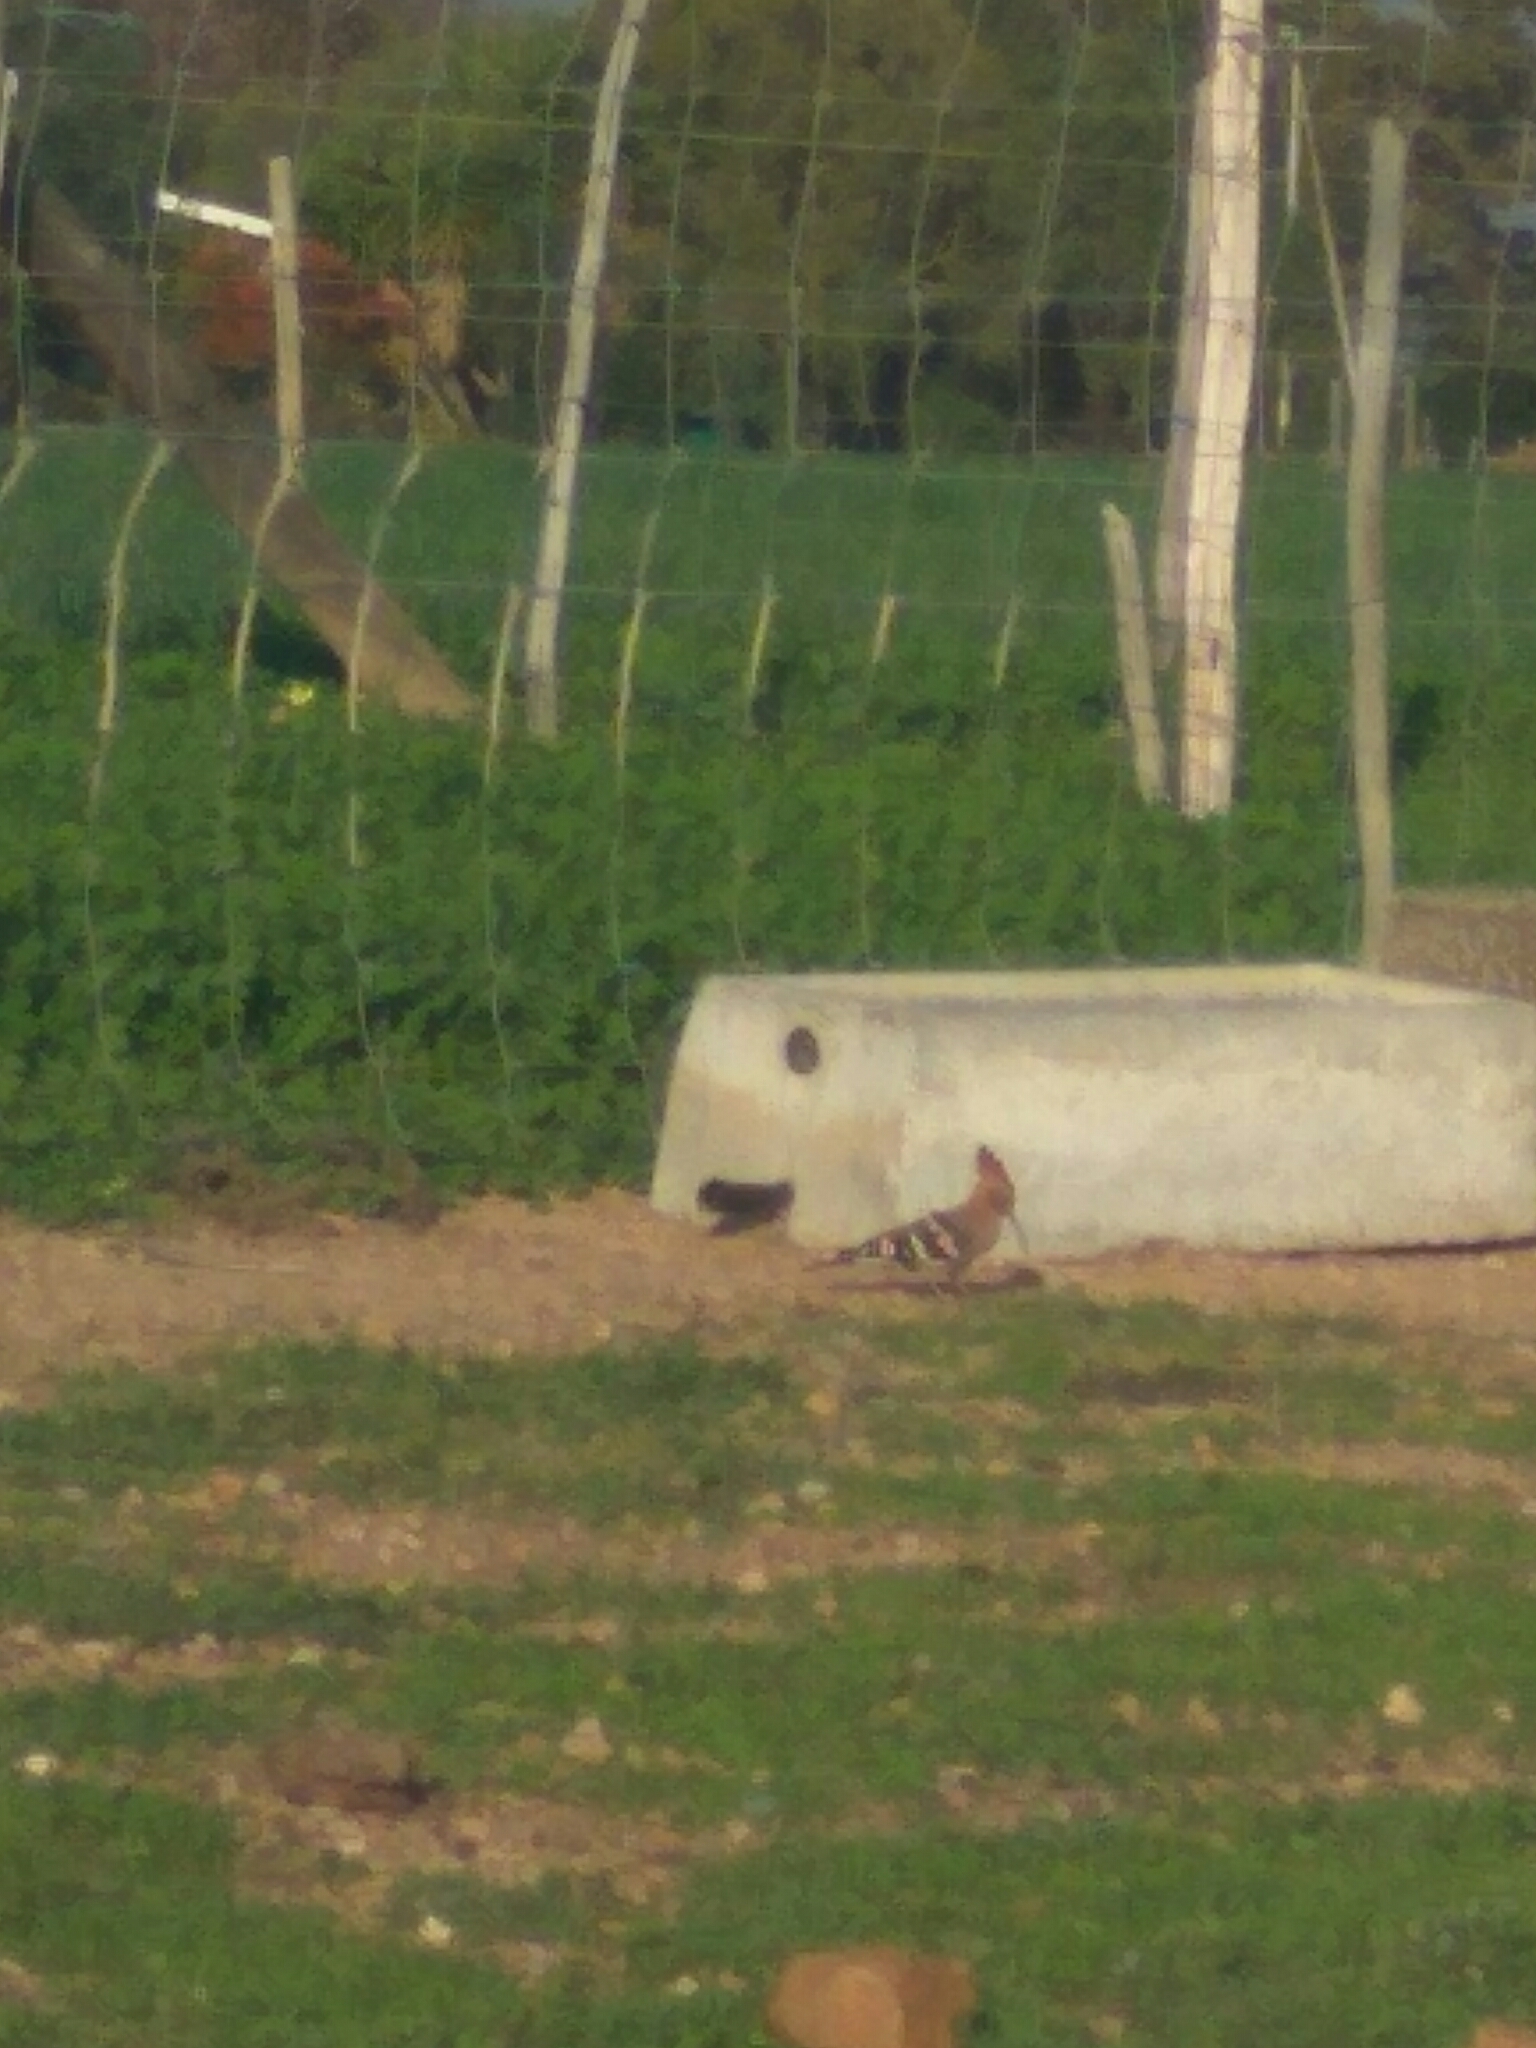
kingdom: Animalia
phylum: Chordata
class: Aves
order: Bucerotiformes
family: Upupidae
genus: Upupa
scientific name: Upupa africana
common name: African hoopoe
